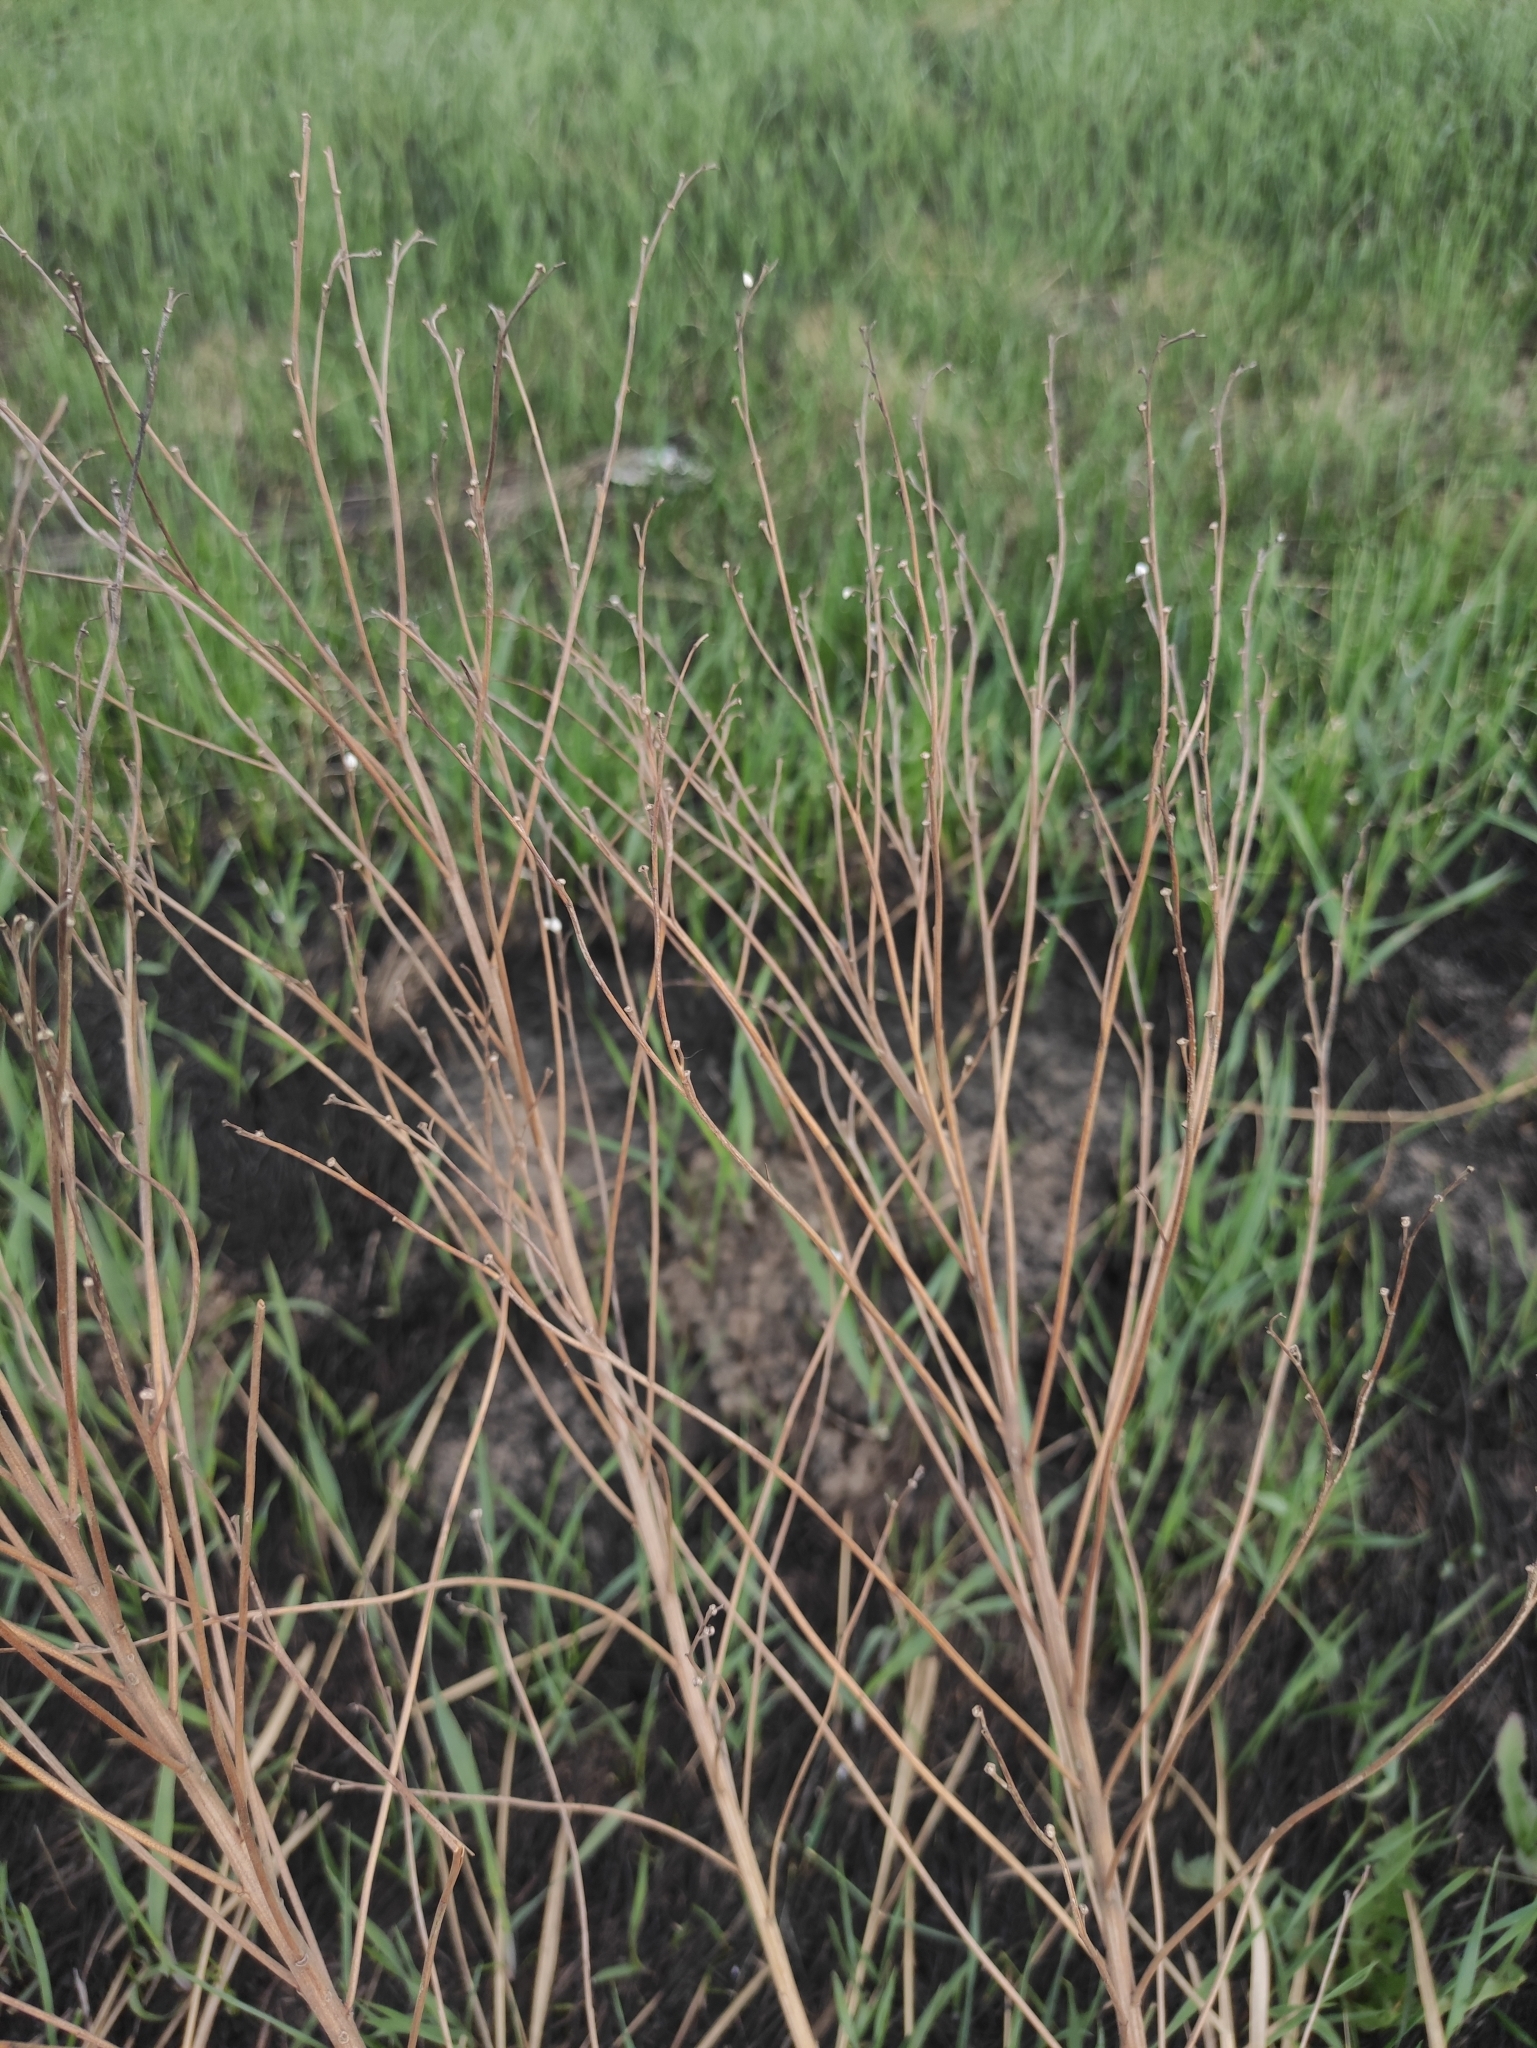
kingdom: Plantae
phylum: Tracheophyta
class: Magnoliopsida
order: Boraginales
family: Boraginaceae
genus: Lithospermum
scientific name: Lithospermum officinale
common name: Common gromwell
